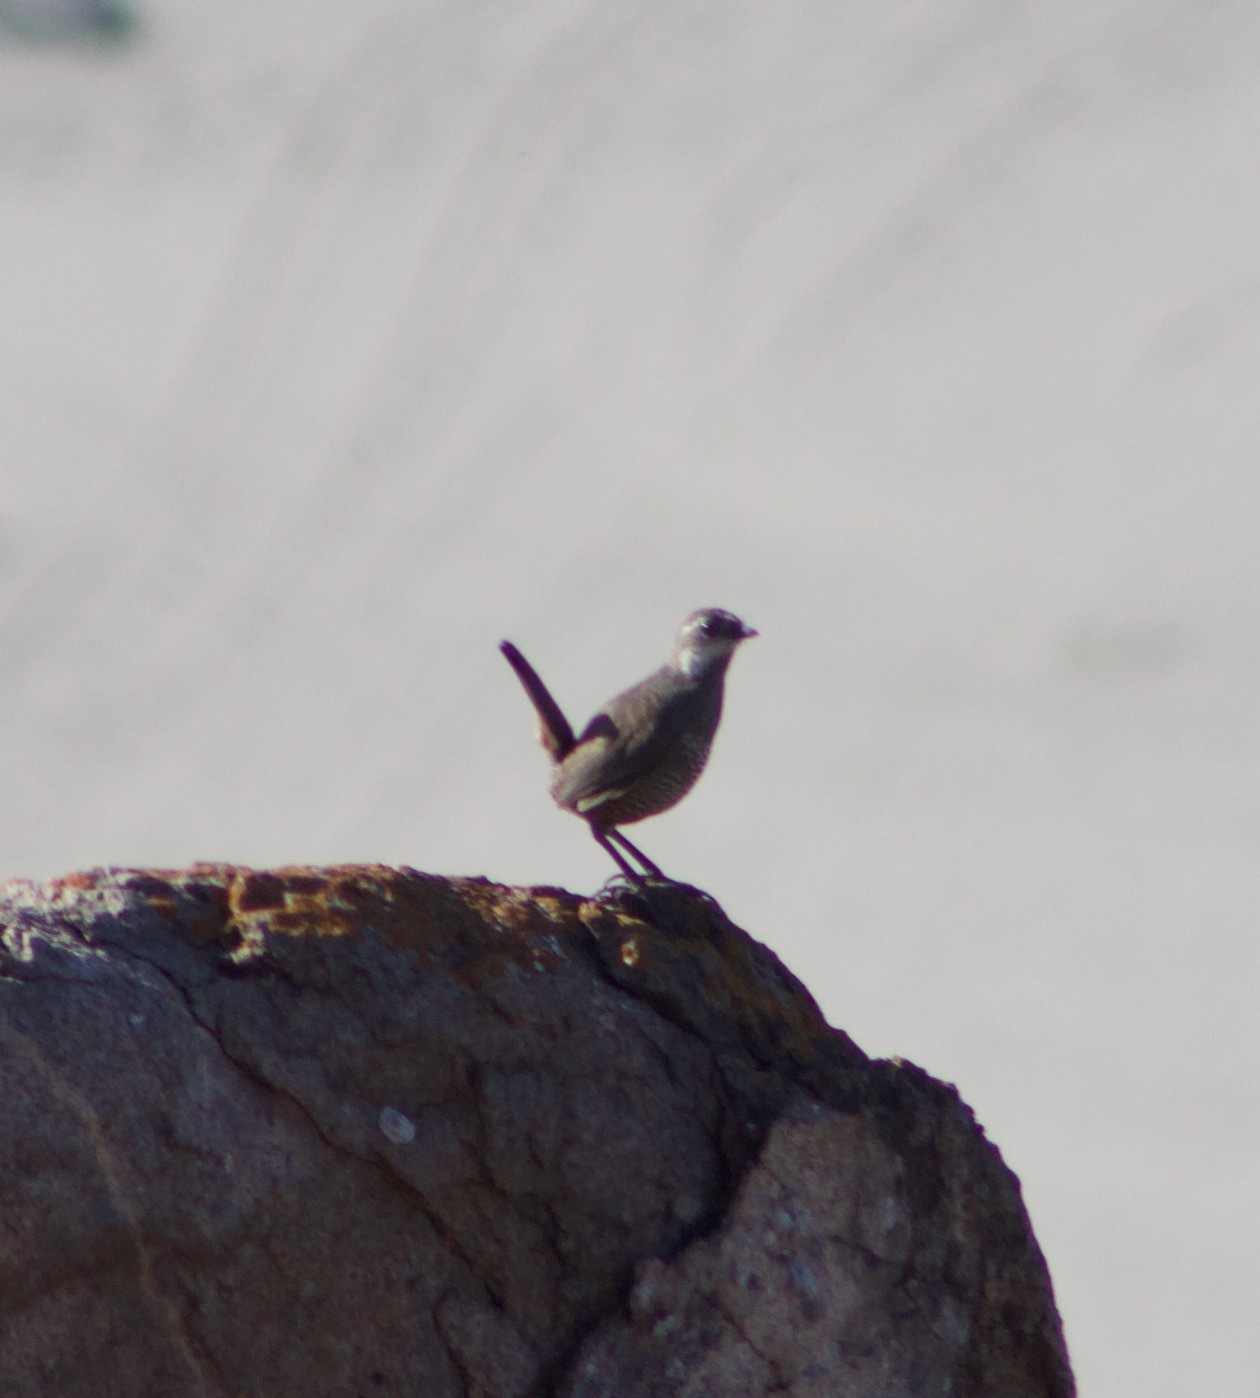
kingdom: Animalia
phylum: Chordata
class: Aves
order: Passeriformes
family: Rhinocryptidae
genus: Pteroptochos
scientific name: Pteroptochos megapodius
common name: Moustached turca
